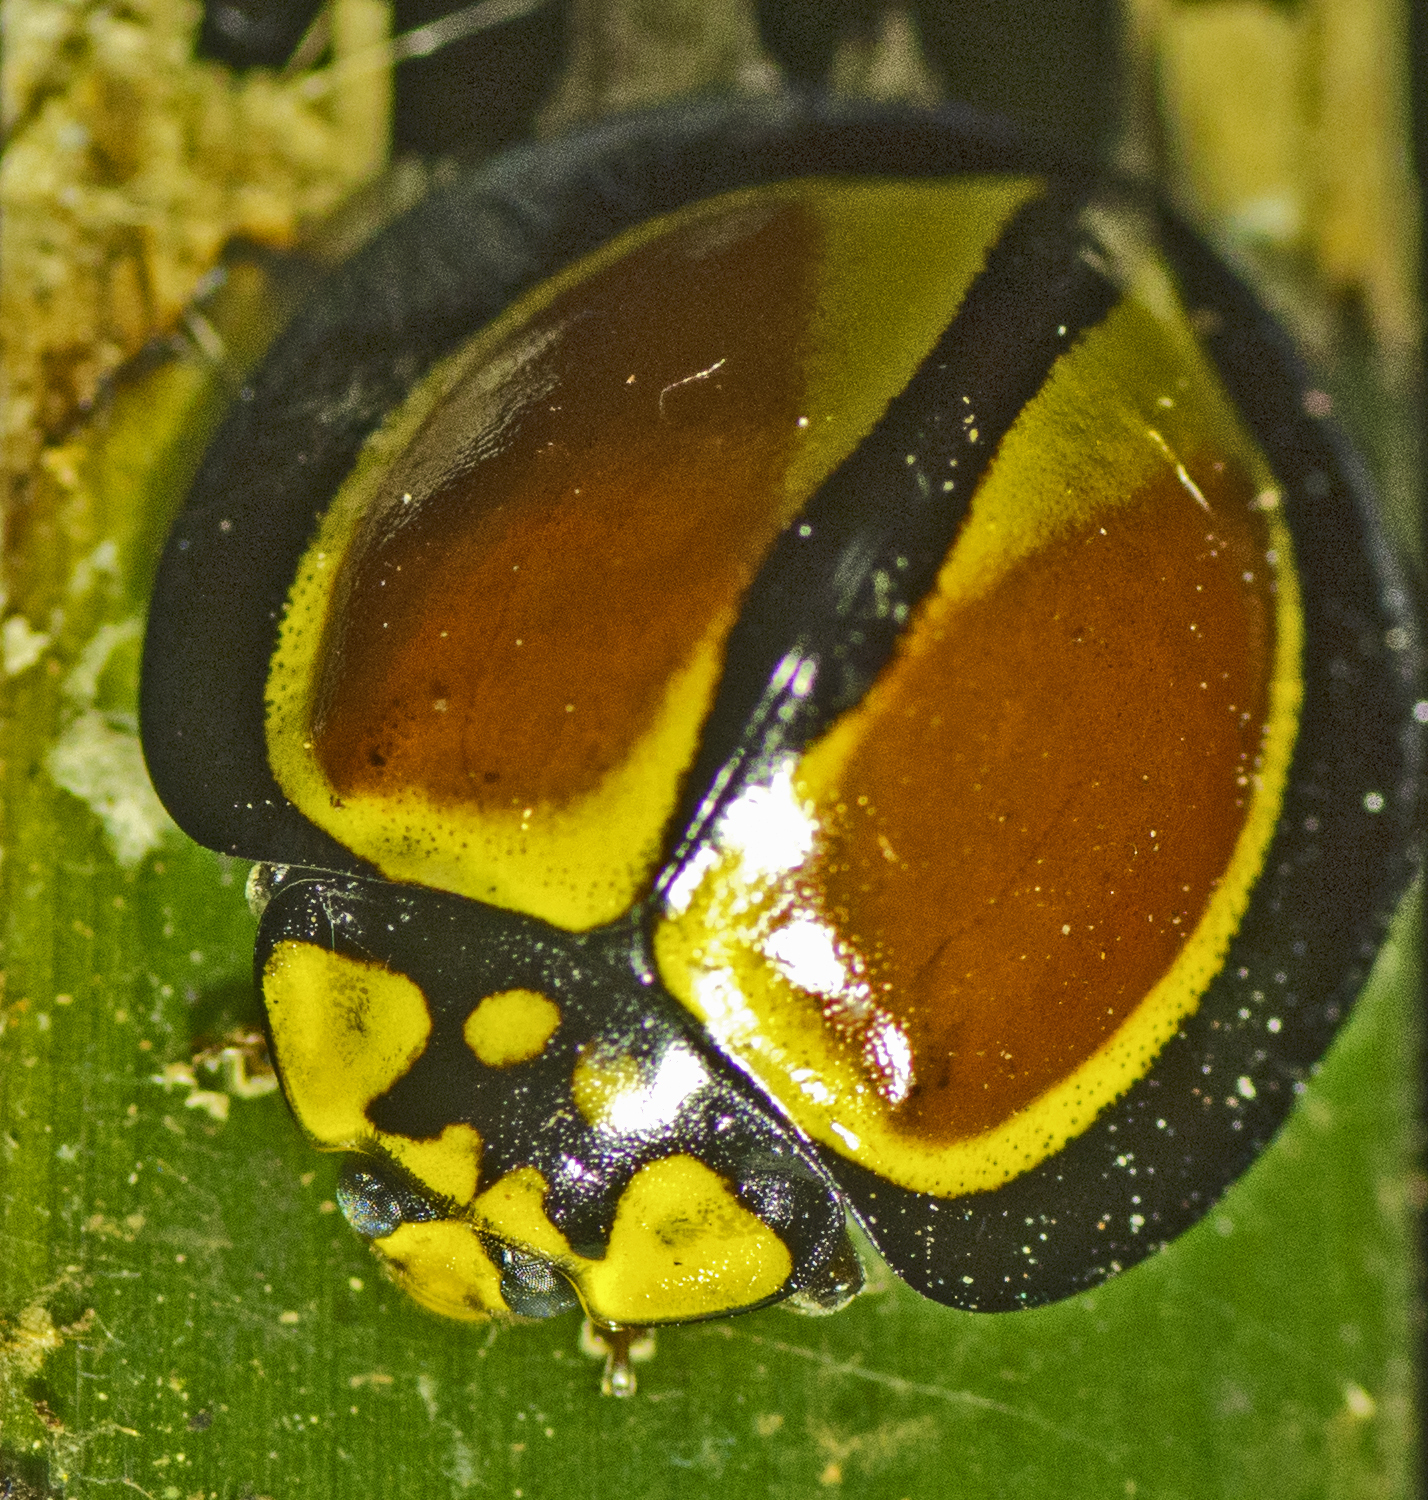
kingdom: Animalia
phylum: Arthropoda
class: Insecta
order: Coleoptera
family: Coccinellidae
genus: Australoneda
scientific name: Australoneda
